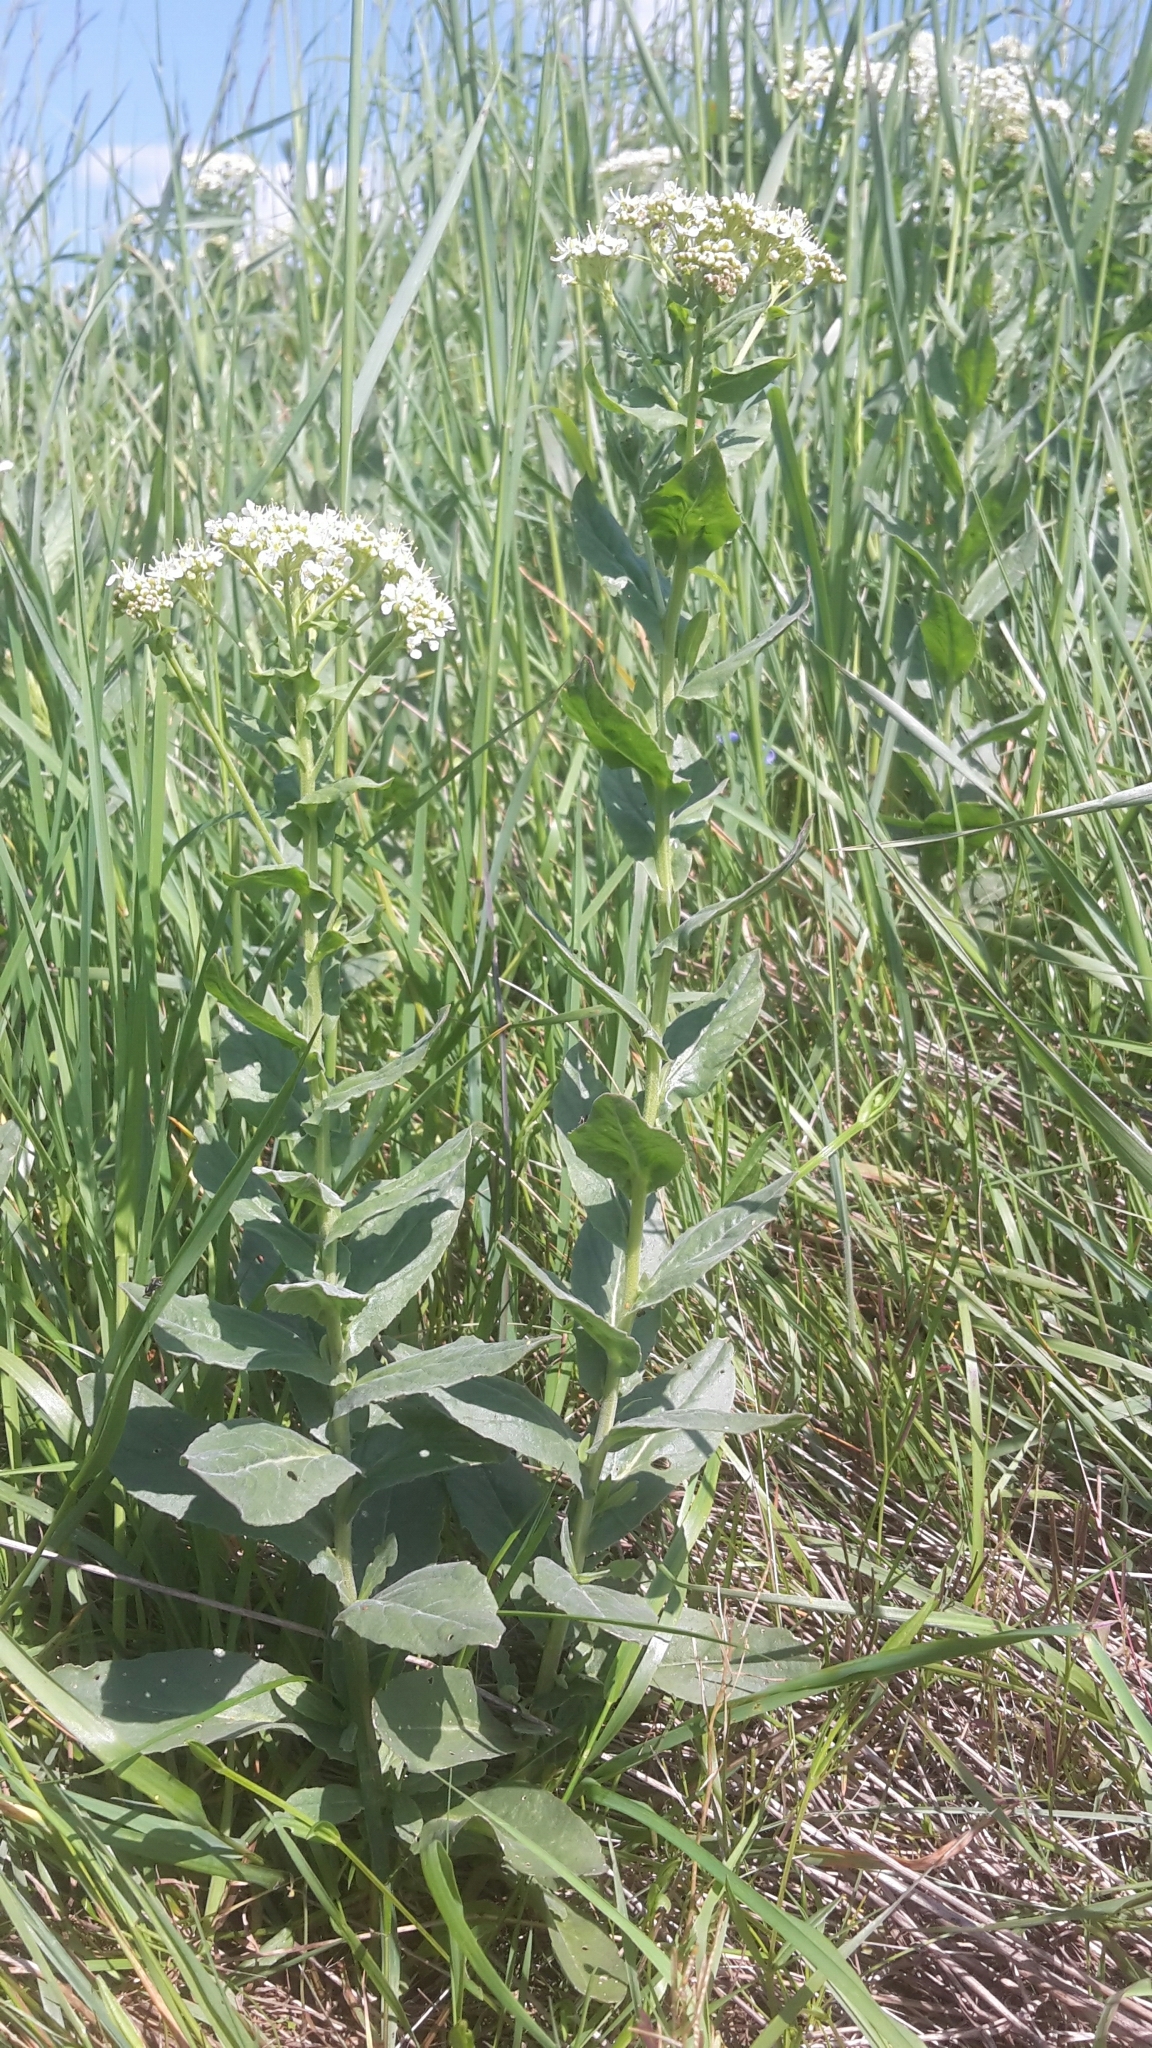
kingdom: Plantae
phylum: Tracheophyta
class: Magnoliopsida
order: Brassicales
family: Brassicaceae
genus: Lepidium
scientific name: Lepidium draba
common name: Hoary cress
